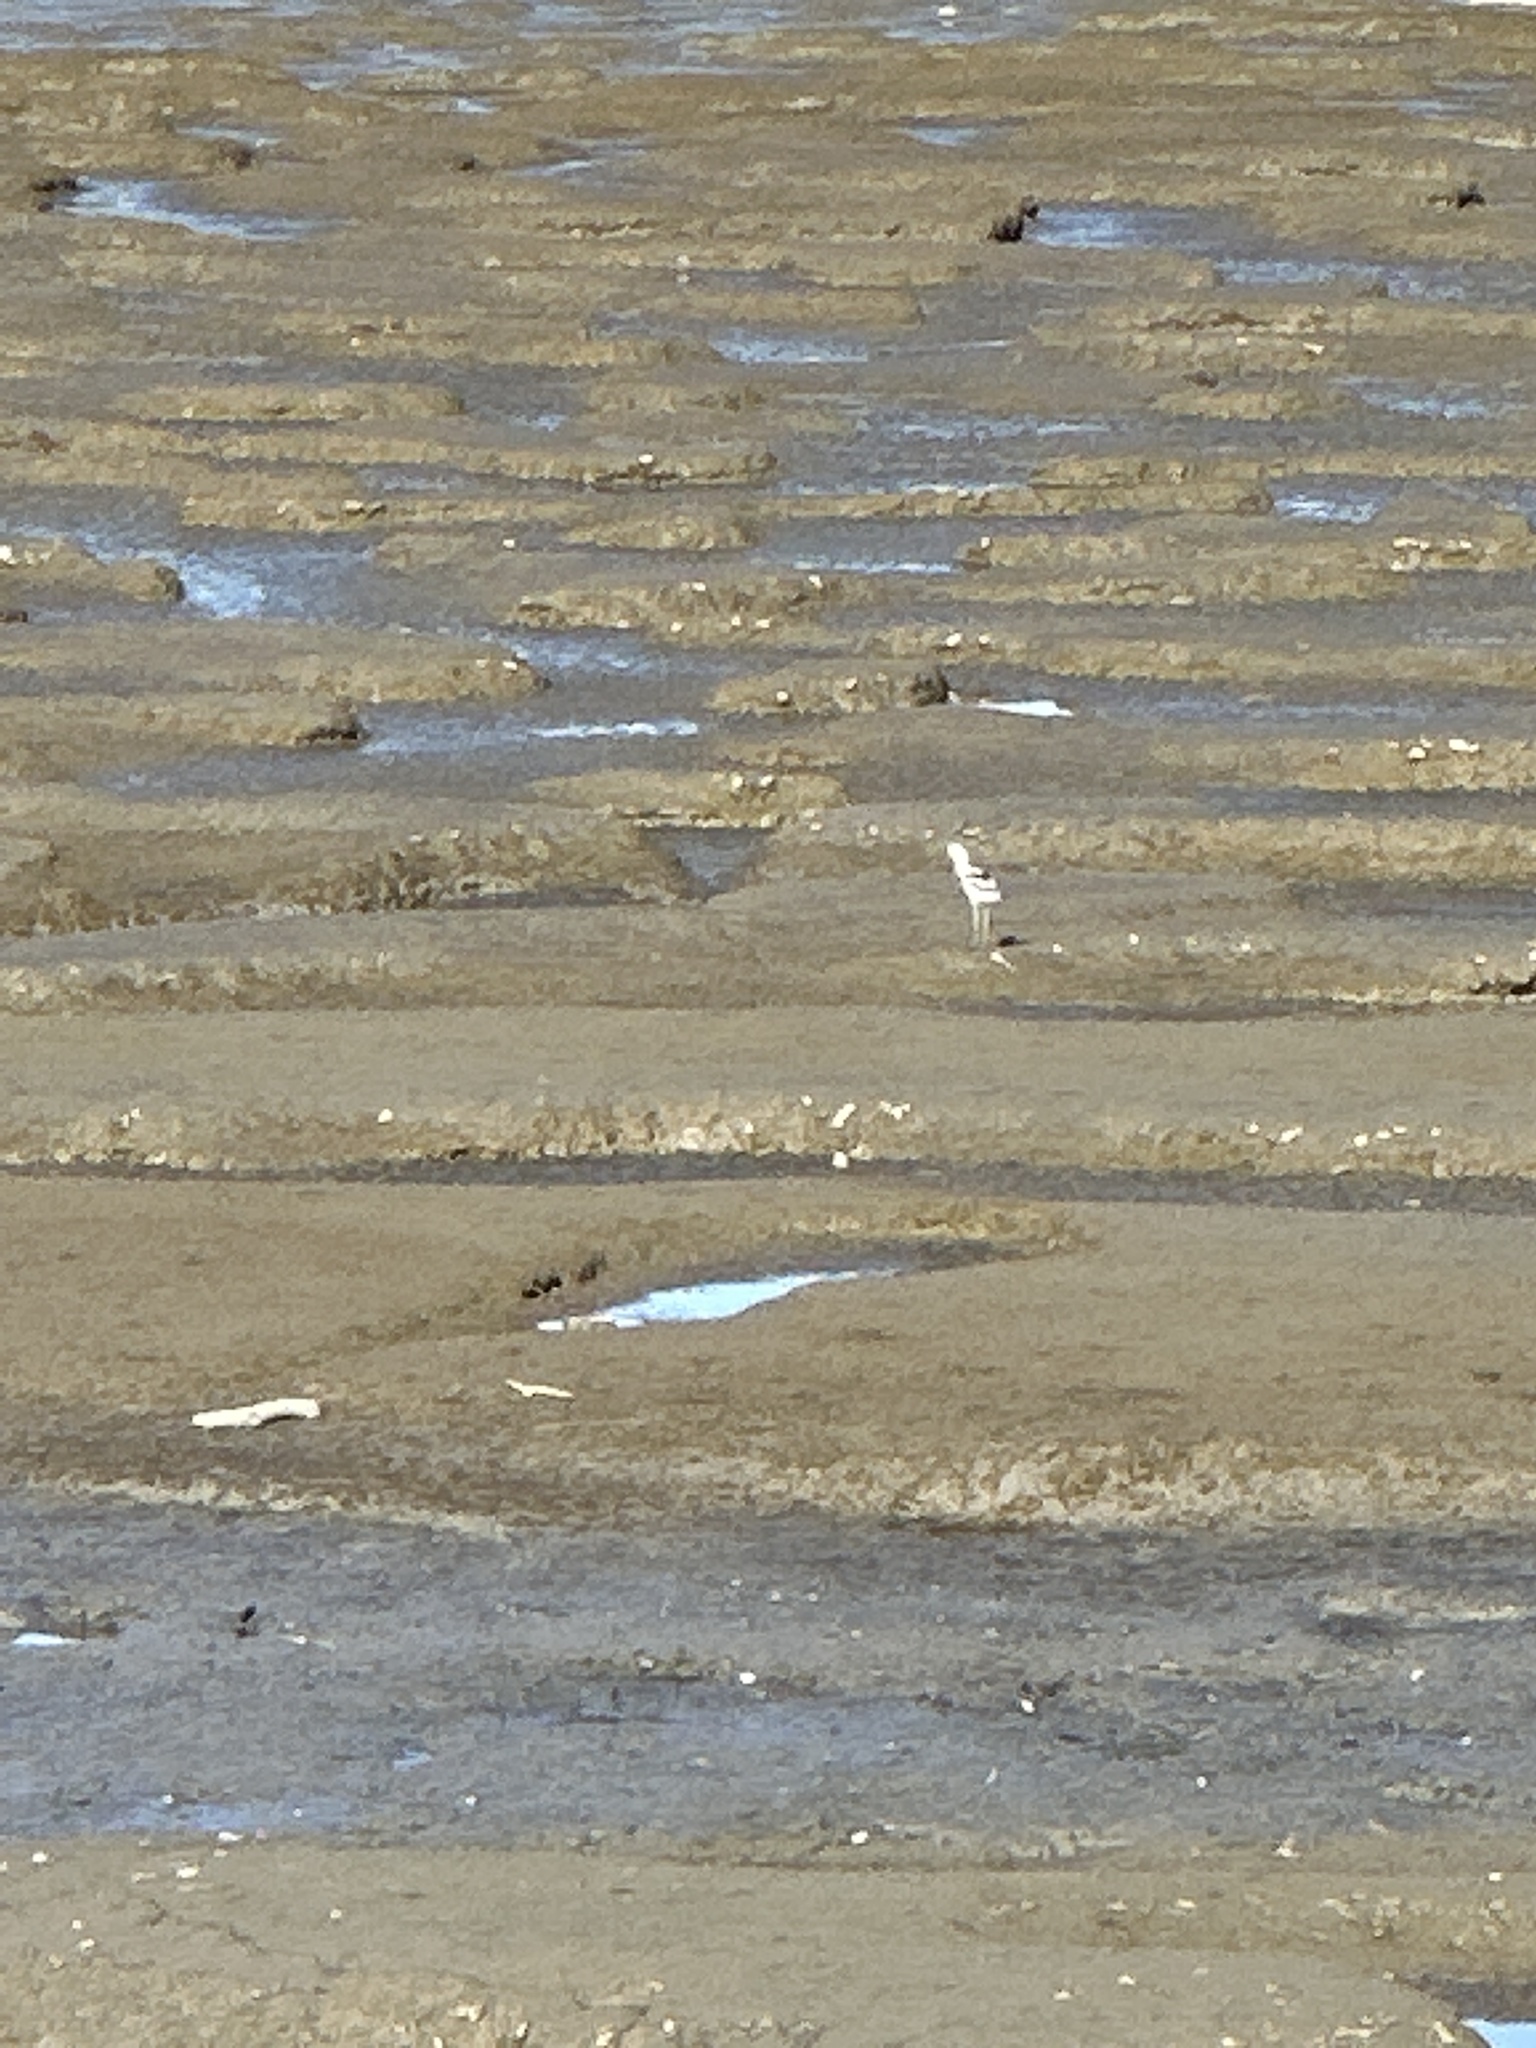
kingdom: Animalia
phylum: Chordata
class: Aves
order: Charadriiformes
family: Recurvirostridae
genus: Recurvirostra
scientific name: Recurvirostra americana
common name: American avocet
